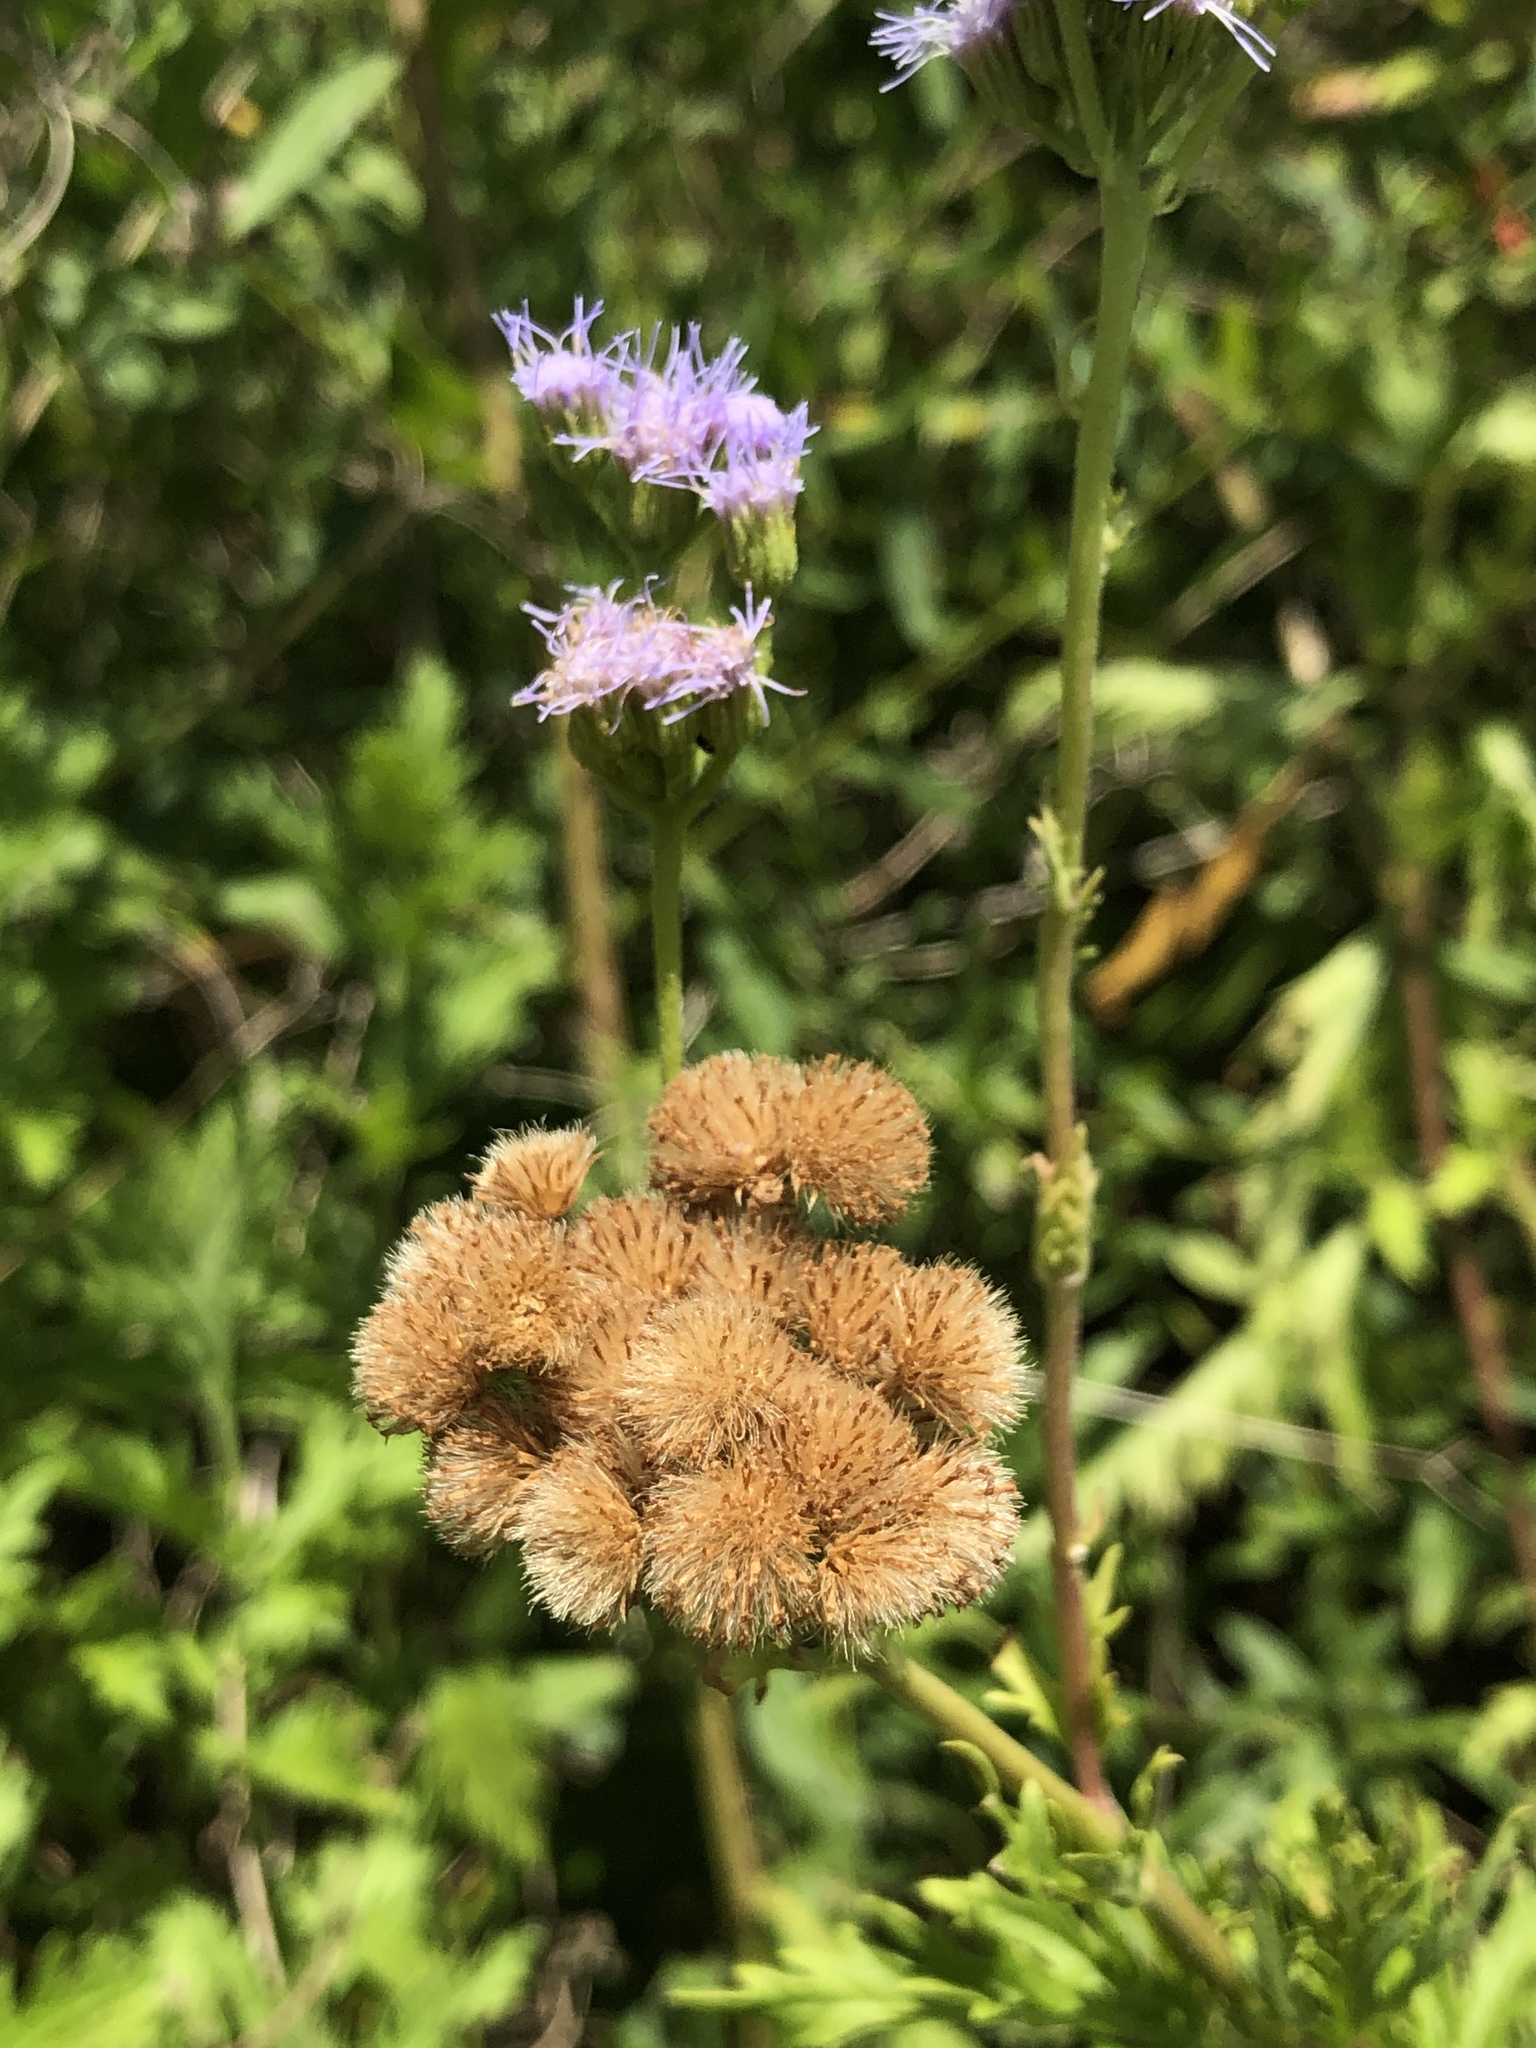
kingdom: Plantae
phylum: Tracheophyta
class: Magnoliopsida
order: Asterales
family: Asteraceae
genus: Conoclinium
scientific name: Conoclinium dissectum
